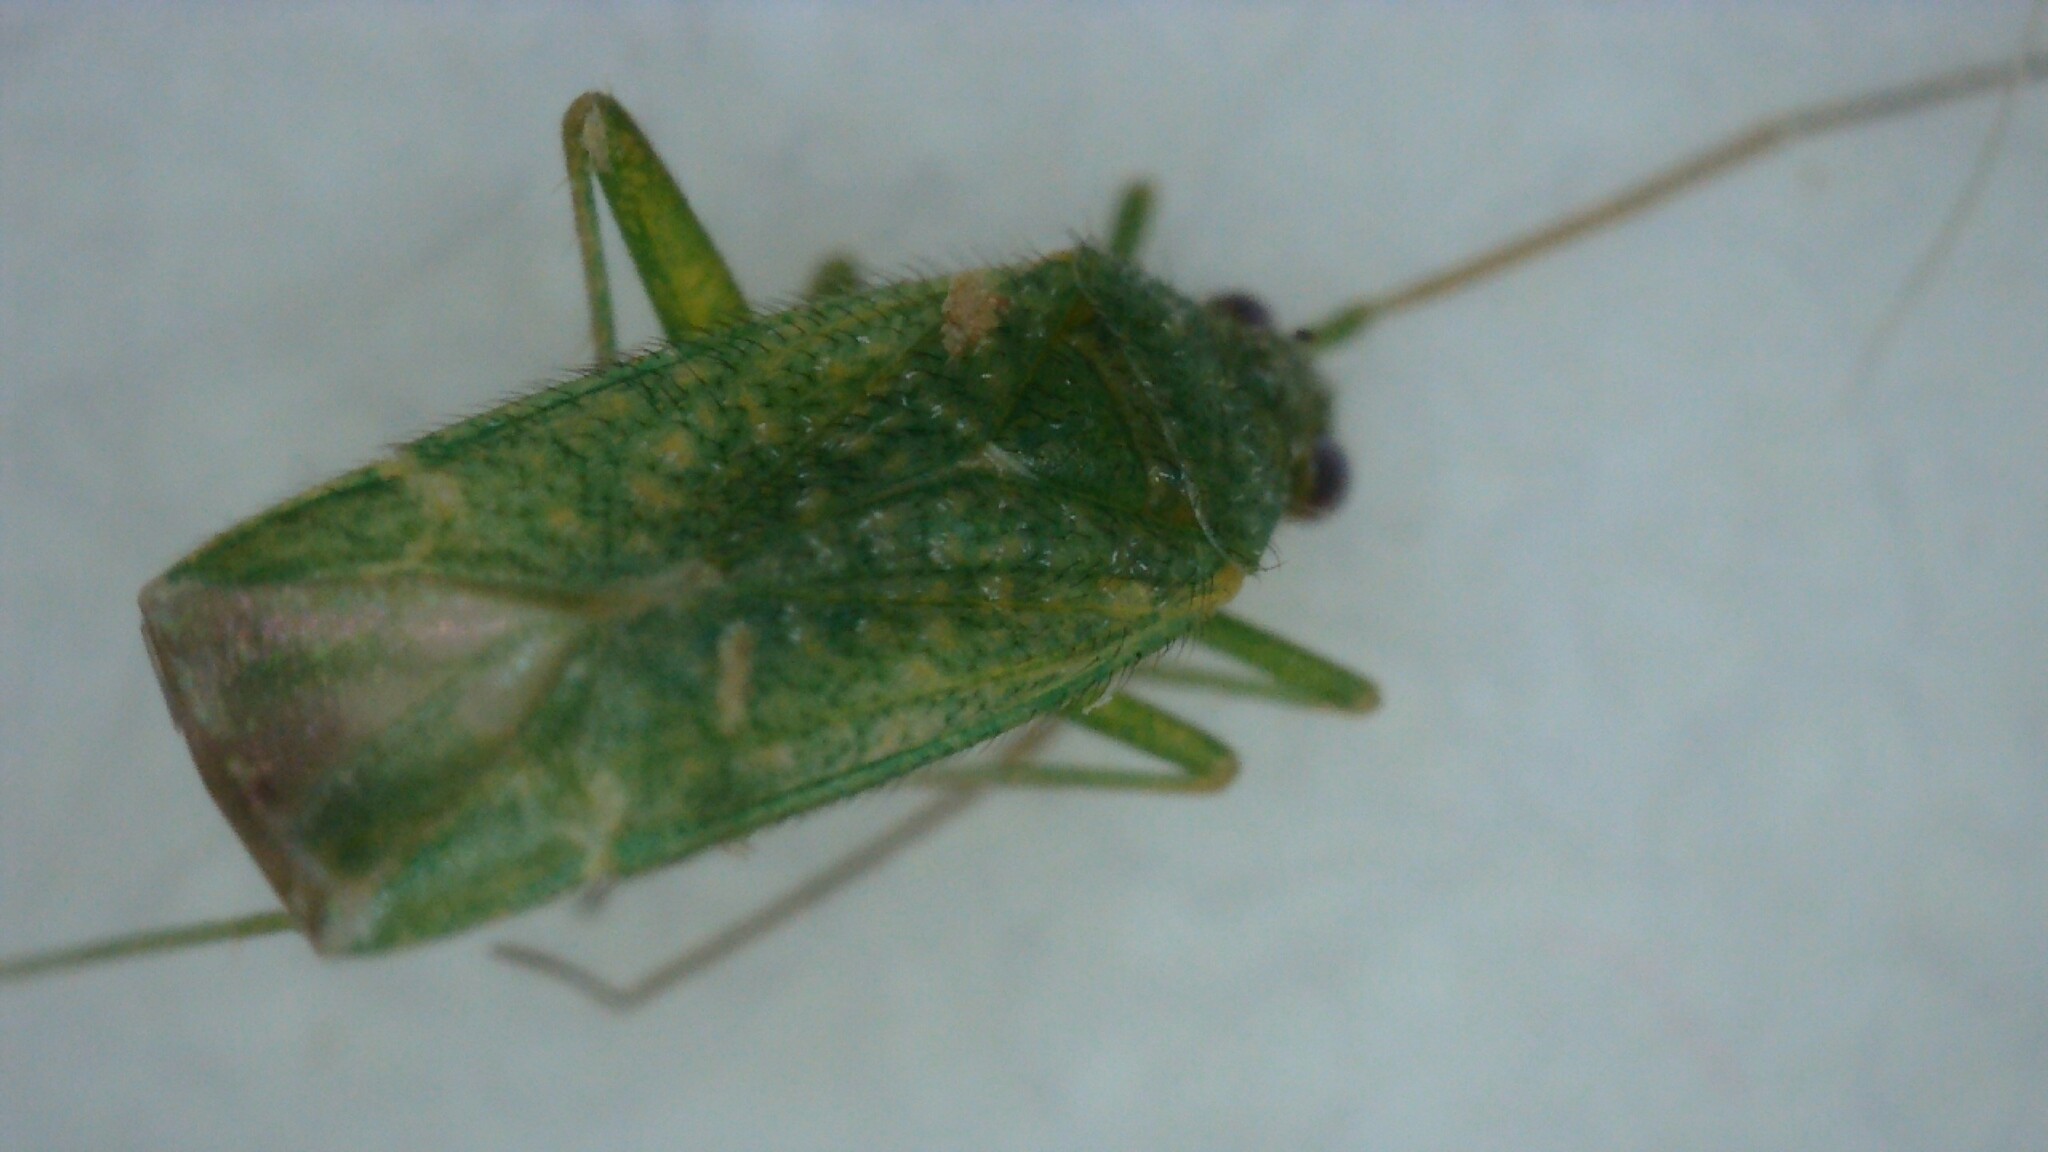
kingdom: Animalia
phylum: Arthropoda
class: Insecta
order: Hemiptera
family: Miridae
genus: Orthotylus
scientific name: Orthotylus flavosparsus
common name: Plant bug
